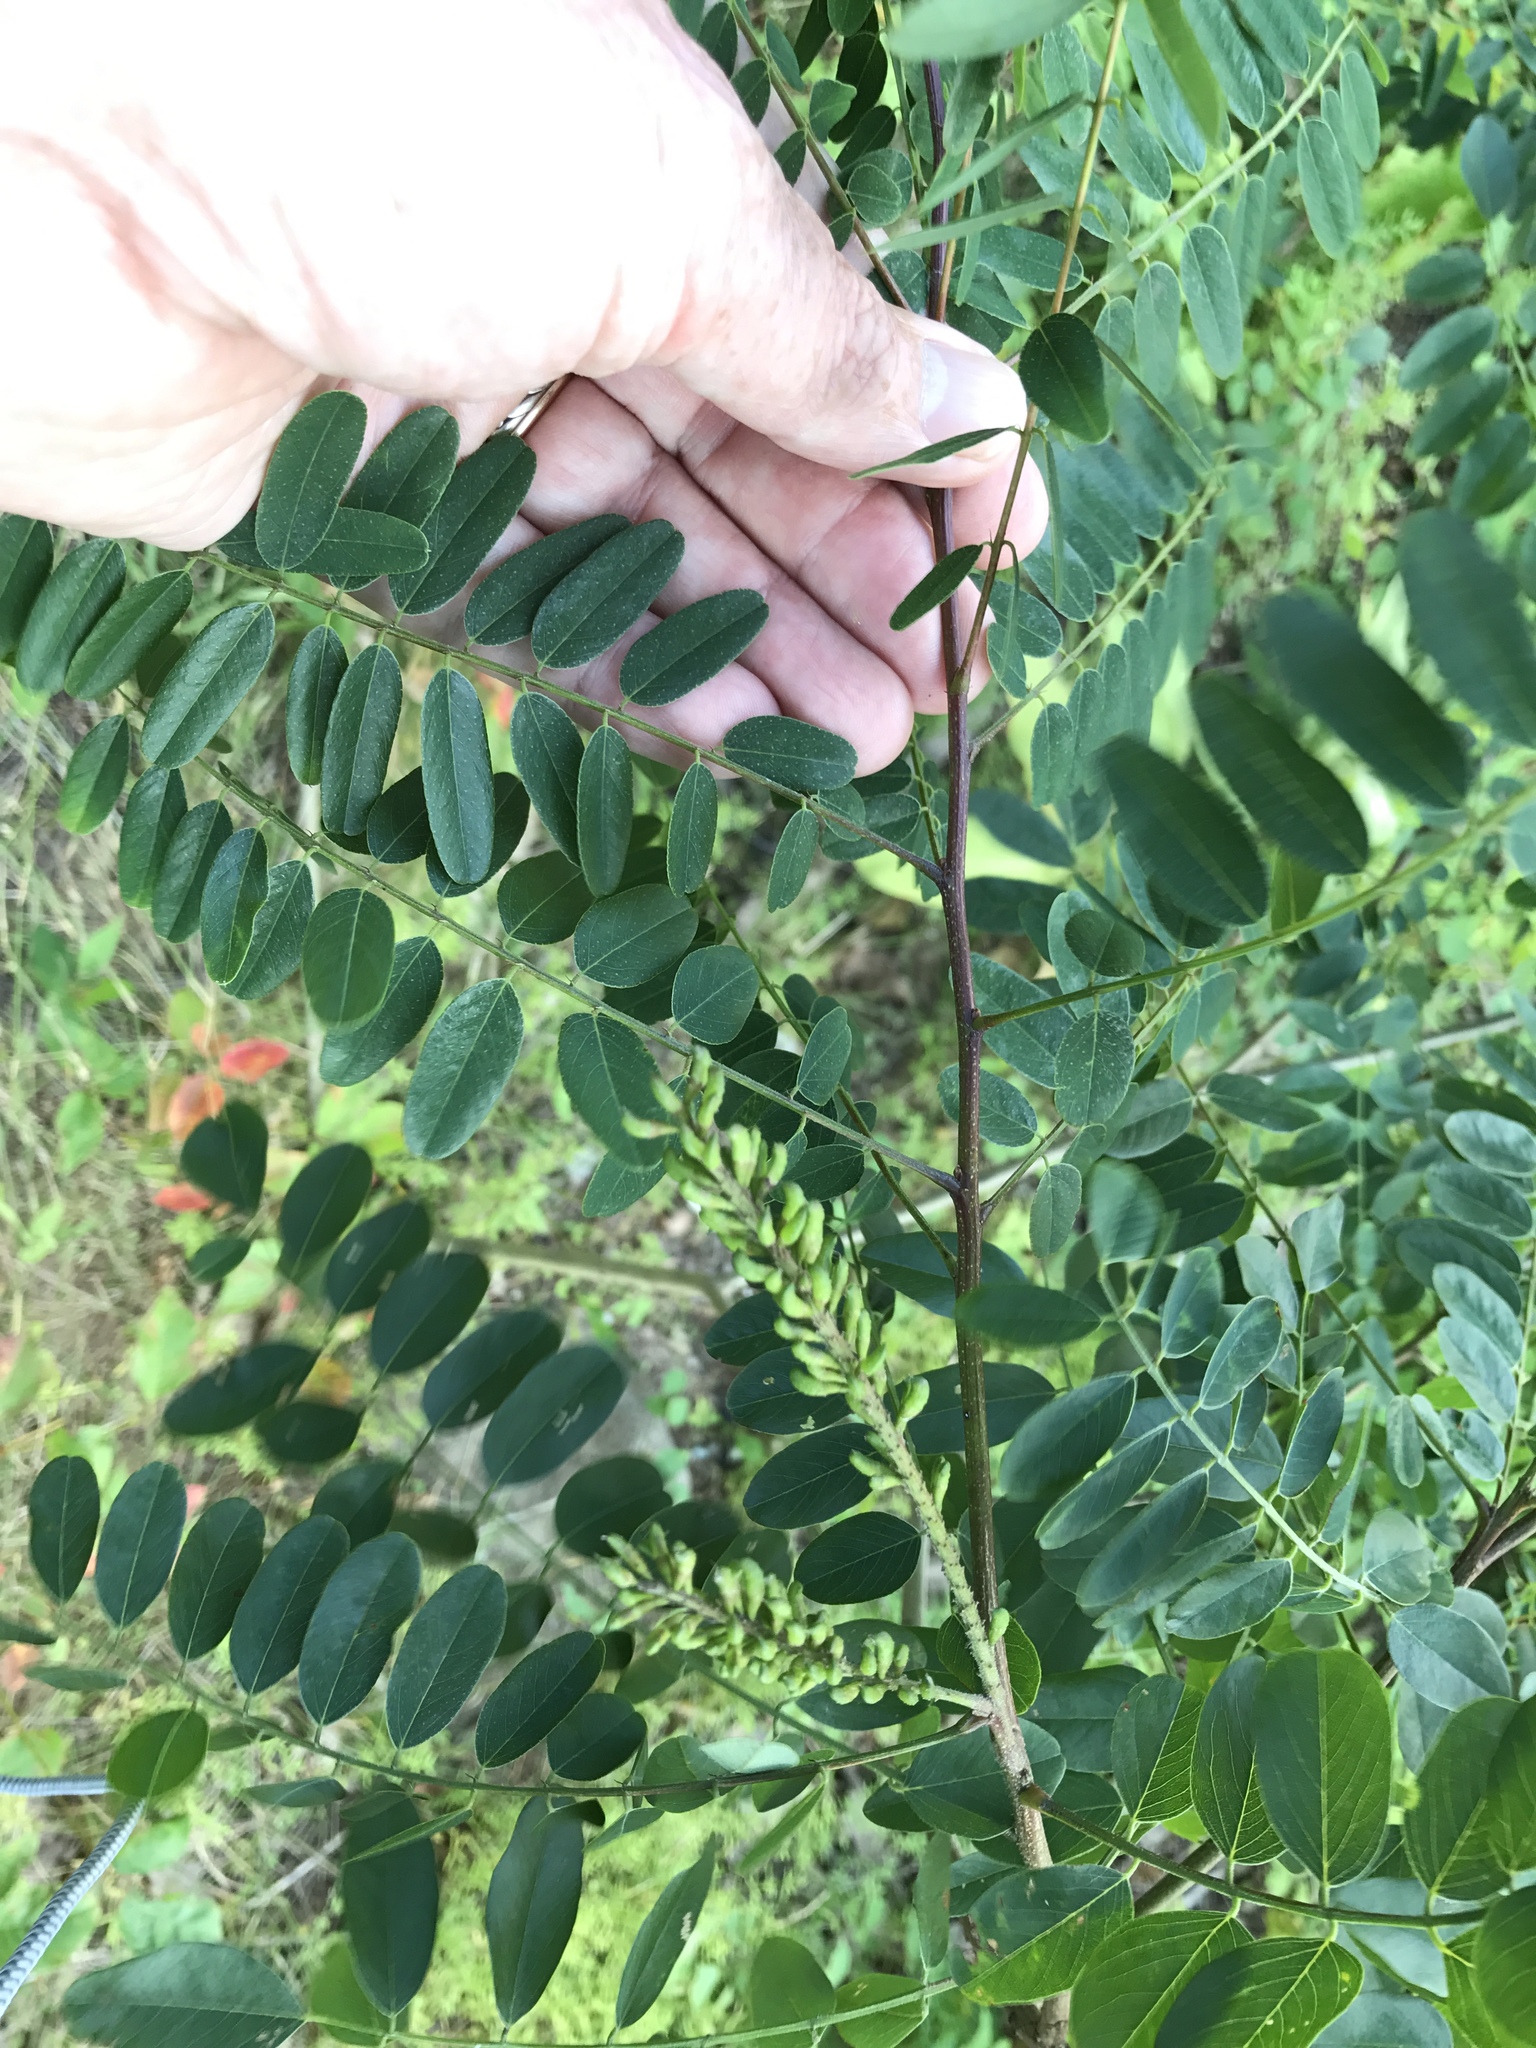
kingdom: Plantae
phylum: Tracheophyta
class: Magnoliopsida
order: Fabales
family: Fabaceae
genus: Amorpha
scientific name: Amorpha fruticosa
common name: False indigo
